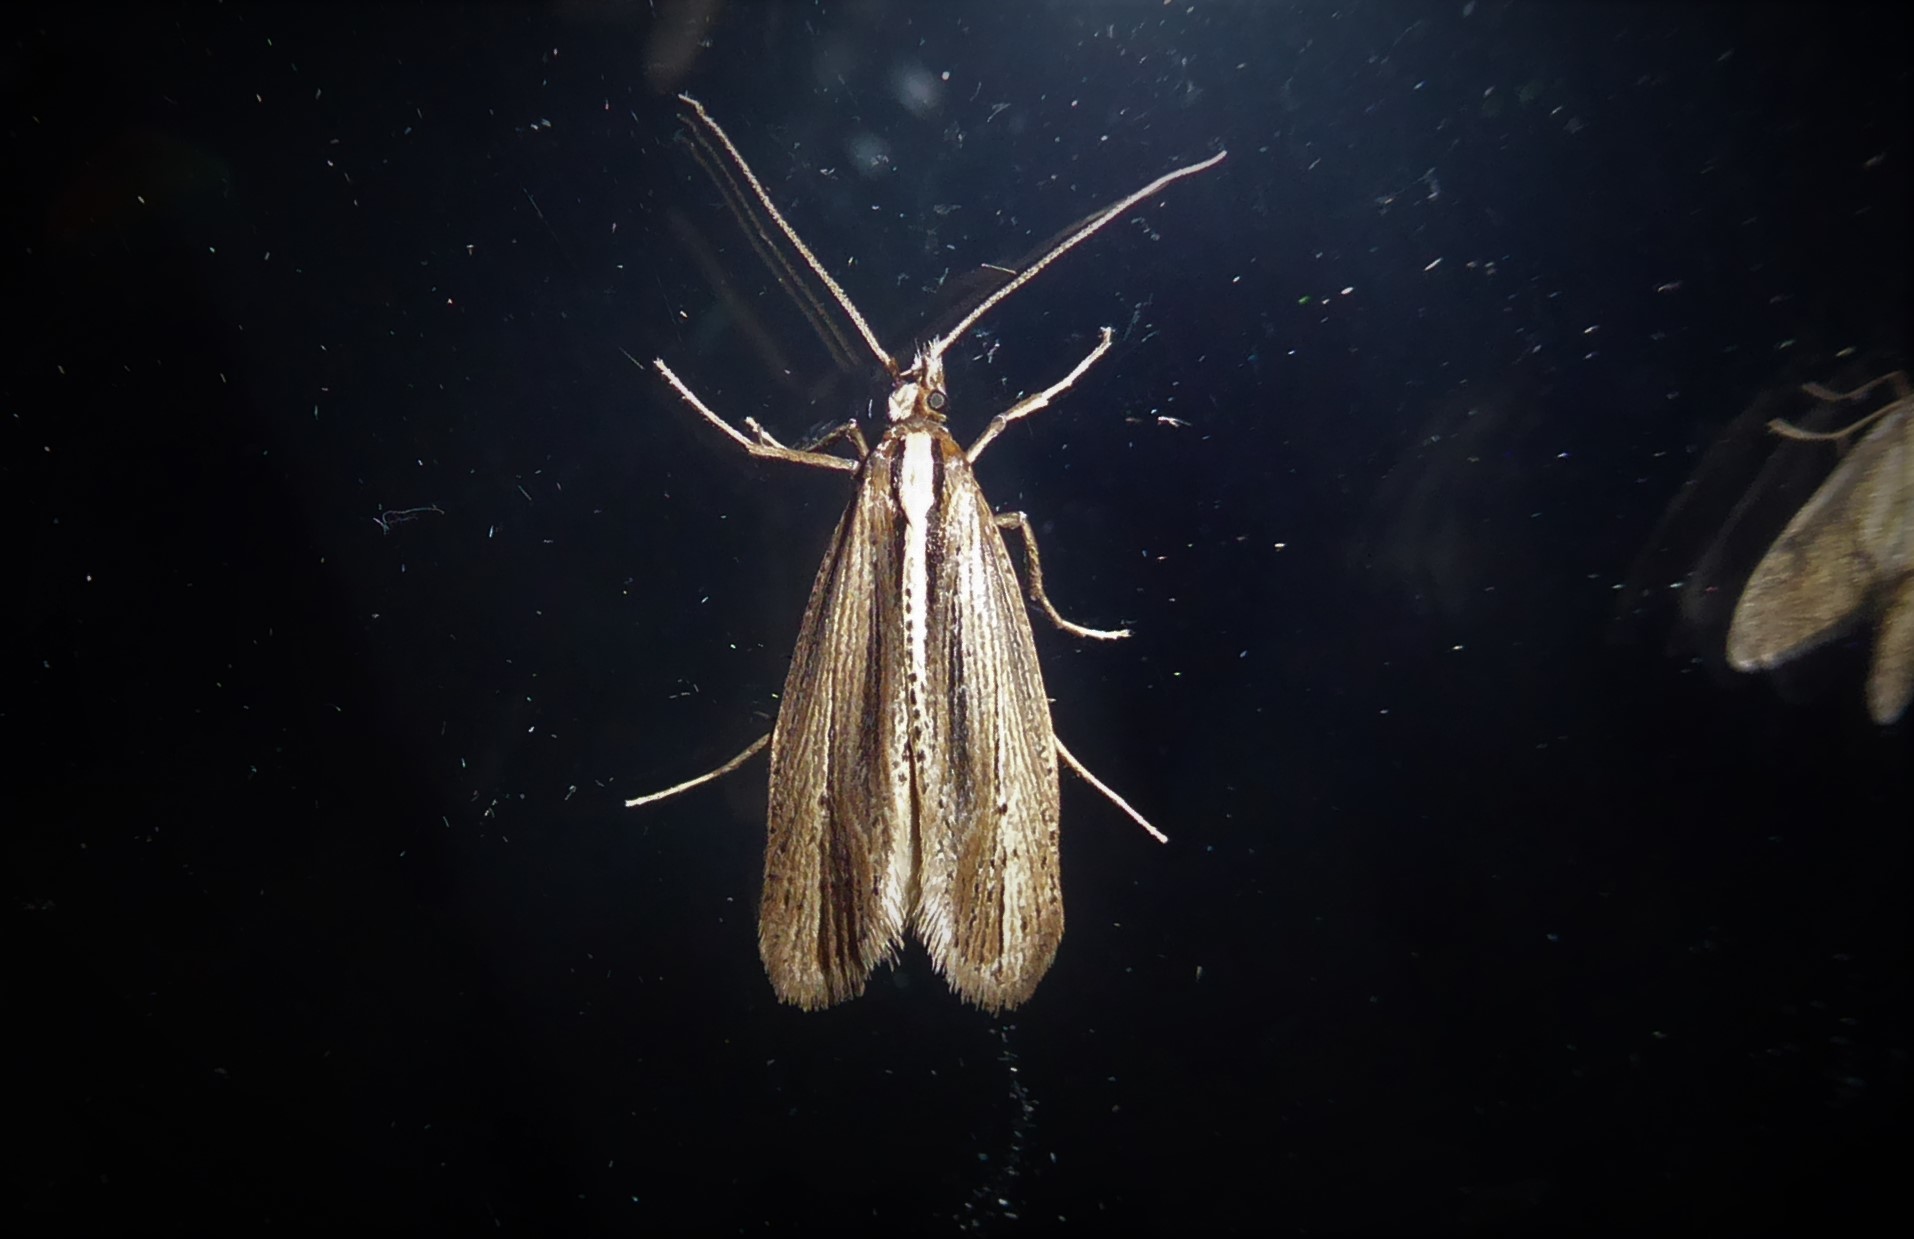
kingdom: Animalia
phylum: Arthropoda
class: Insecta
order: Lepidoptera
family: Plutellidae
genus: Proditrix
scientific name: Proditrix megalynta
